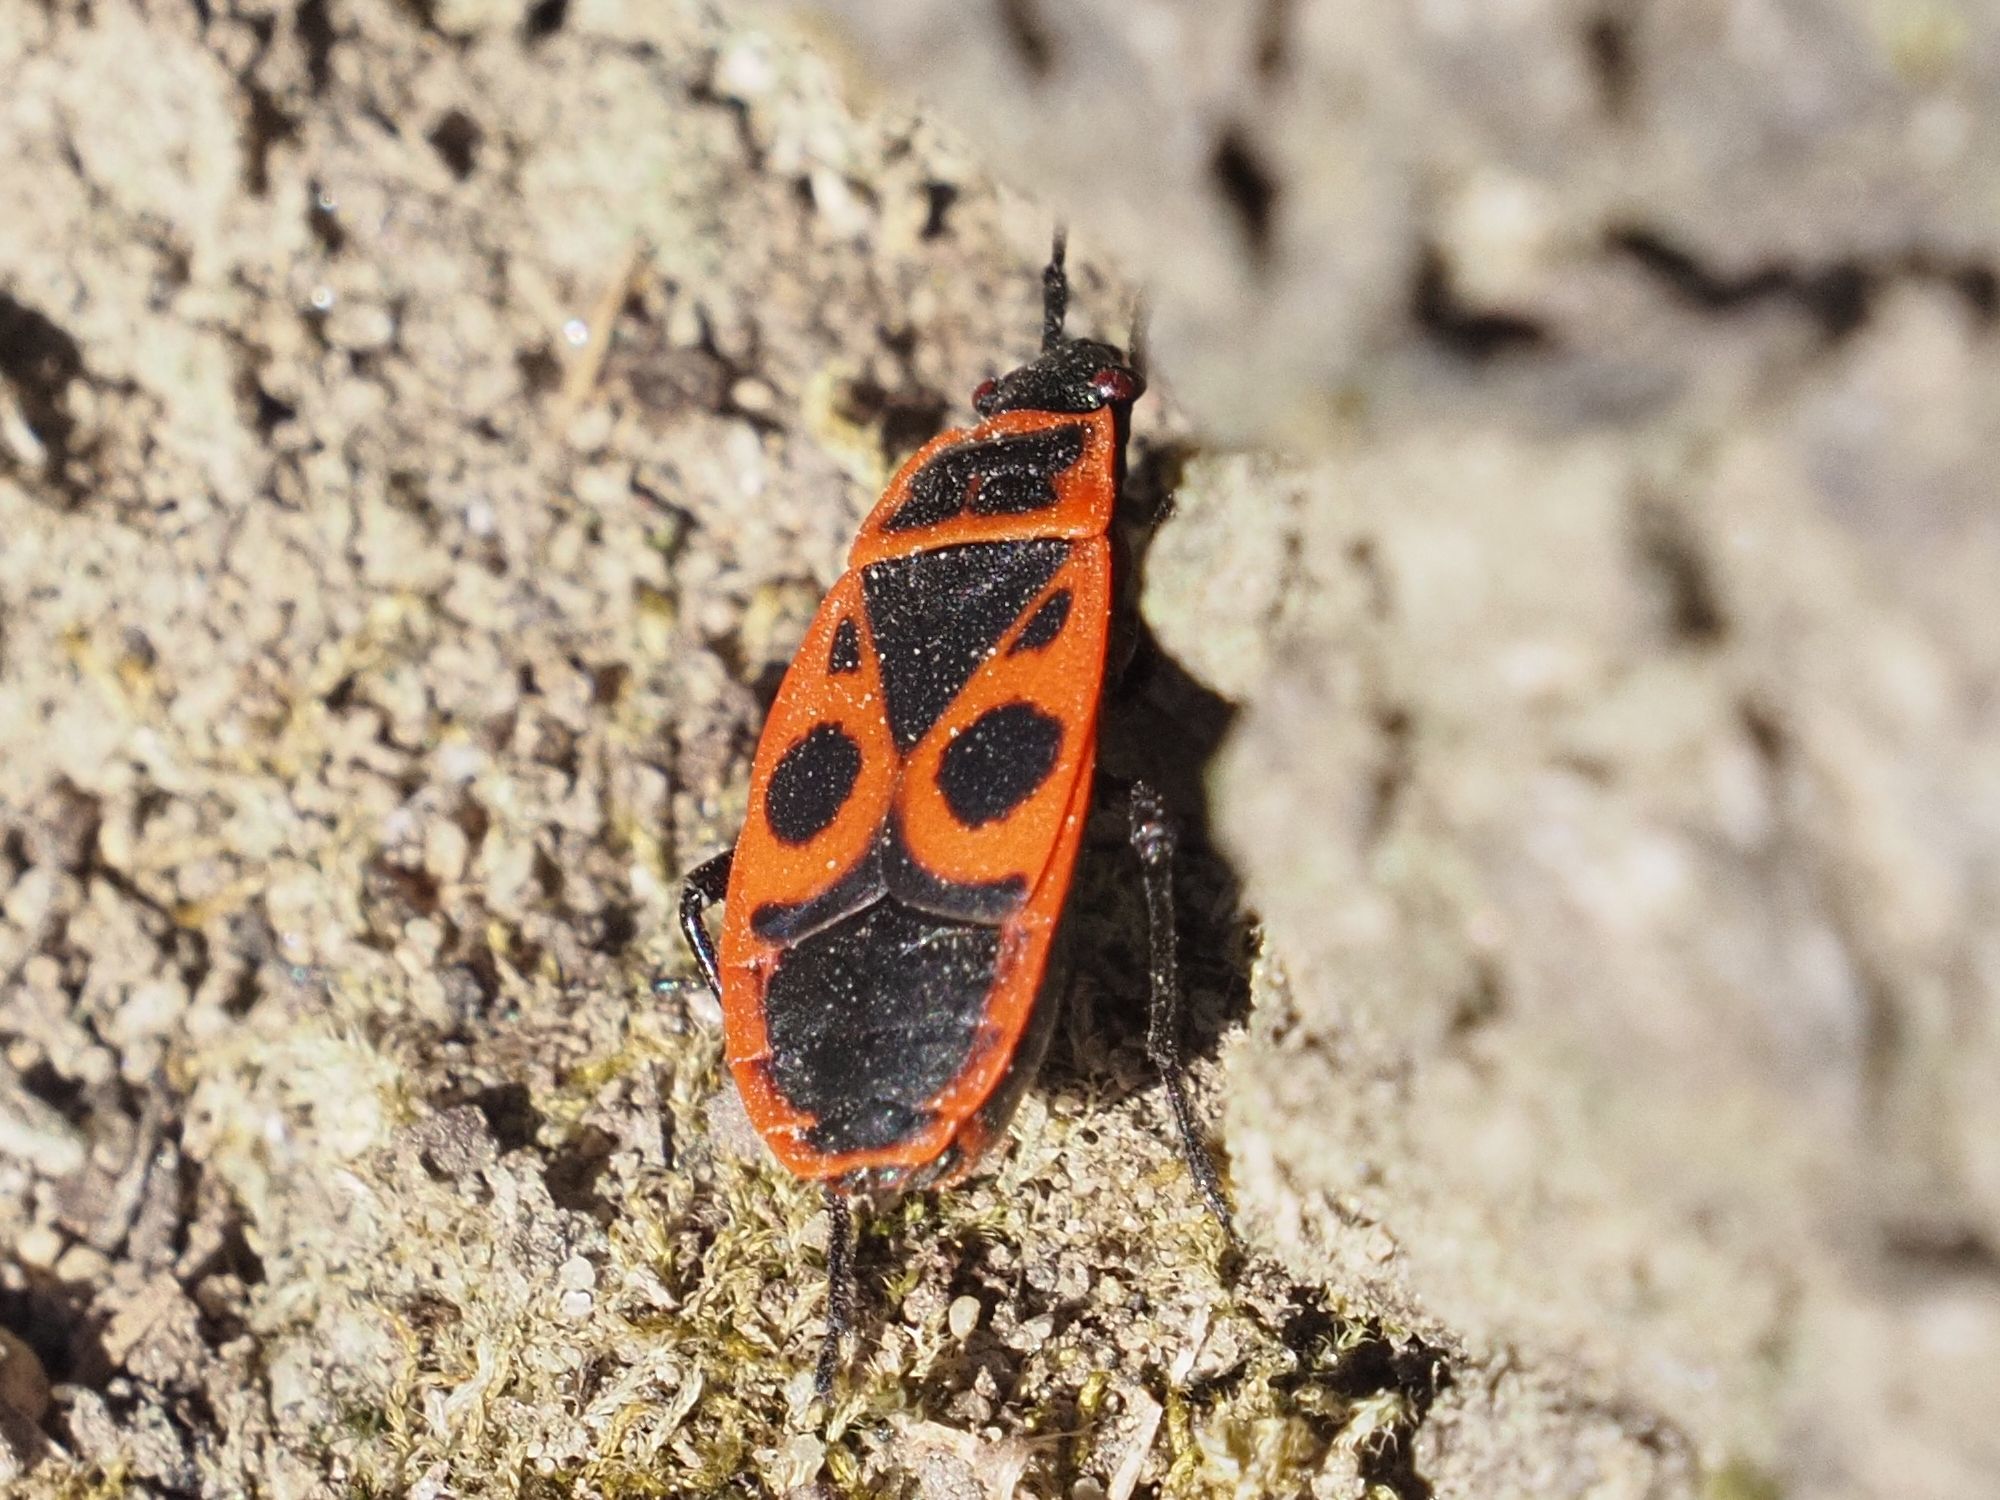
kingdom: Animalia
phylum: Arthropoda
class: Insecta
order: Hemiptera
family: Pyrrhocoridae
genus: Pyrrhocoris
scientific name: Pyrrhocoris apterus
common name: Firebug
